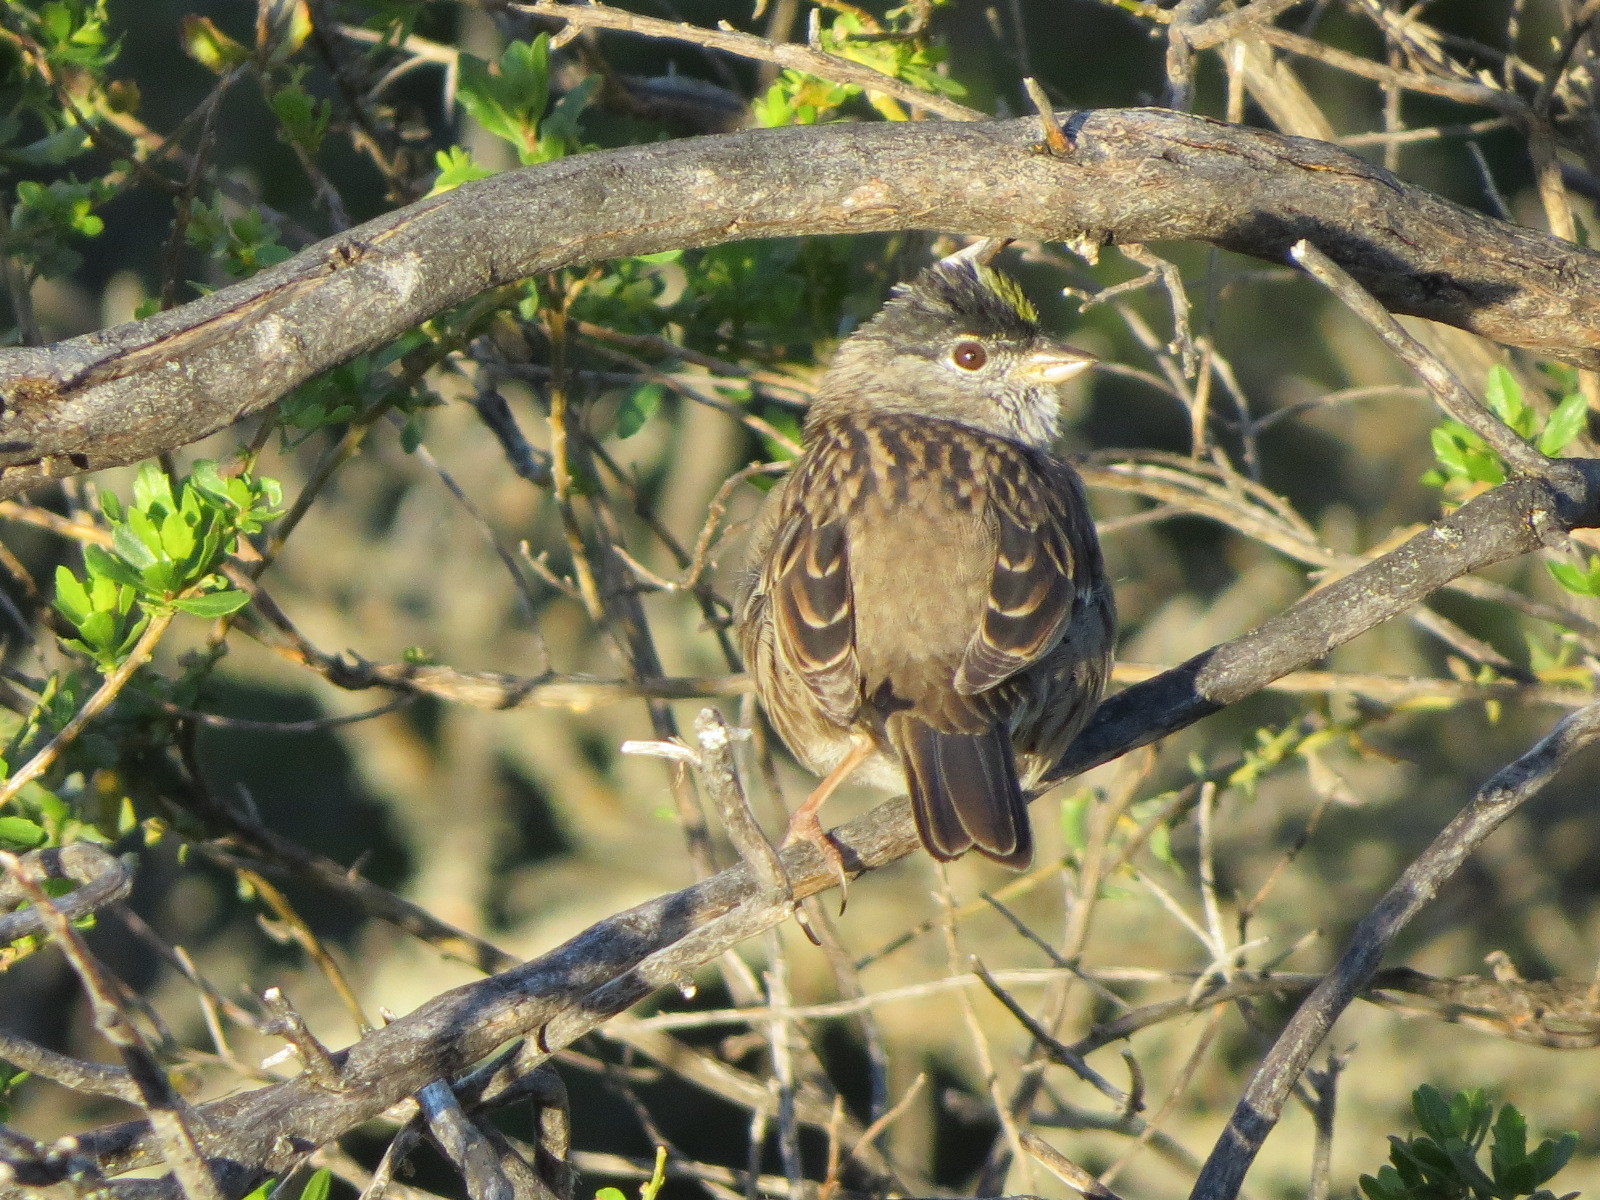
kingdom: Animalia
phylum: Chordata
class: Aves
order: Passeriformes
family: Passerellidae
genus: Zonotrichia
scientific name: Zonotrichia atricapilla
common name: Golden-crowned sparrow
